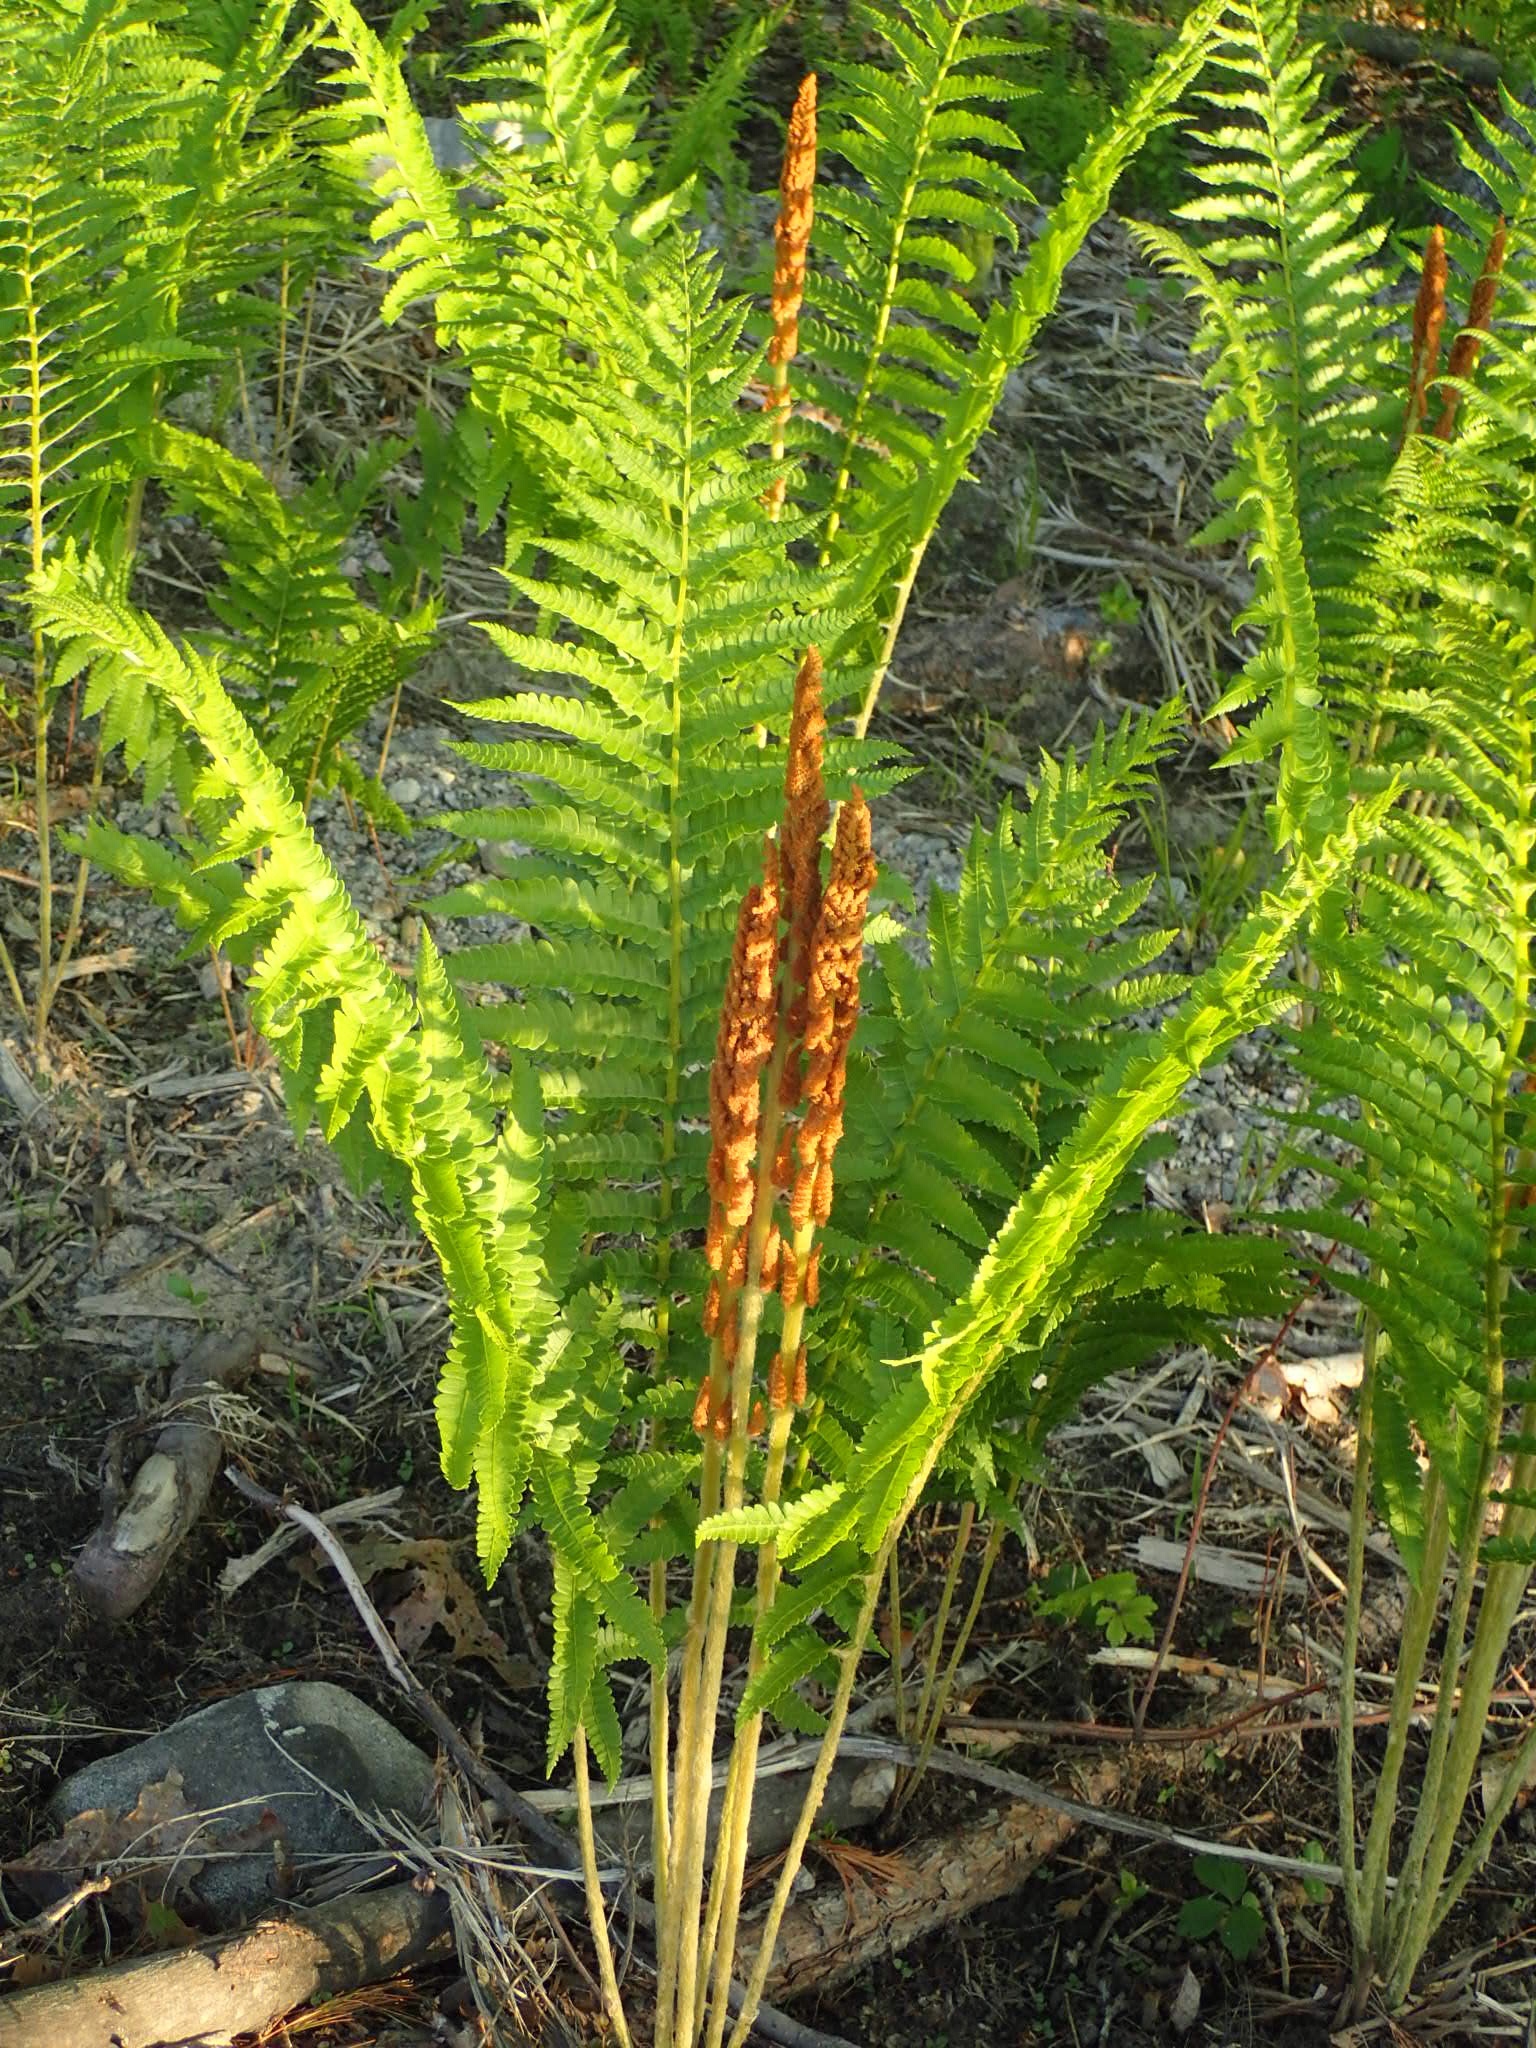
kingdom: Plantae
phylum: Tracheophyta
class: Polypodiopsida
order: Osmundales
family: Osmundaceae
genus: Osmundastrum
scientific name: Osmundastrum cinnamomeum
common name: Cinnamon fern
